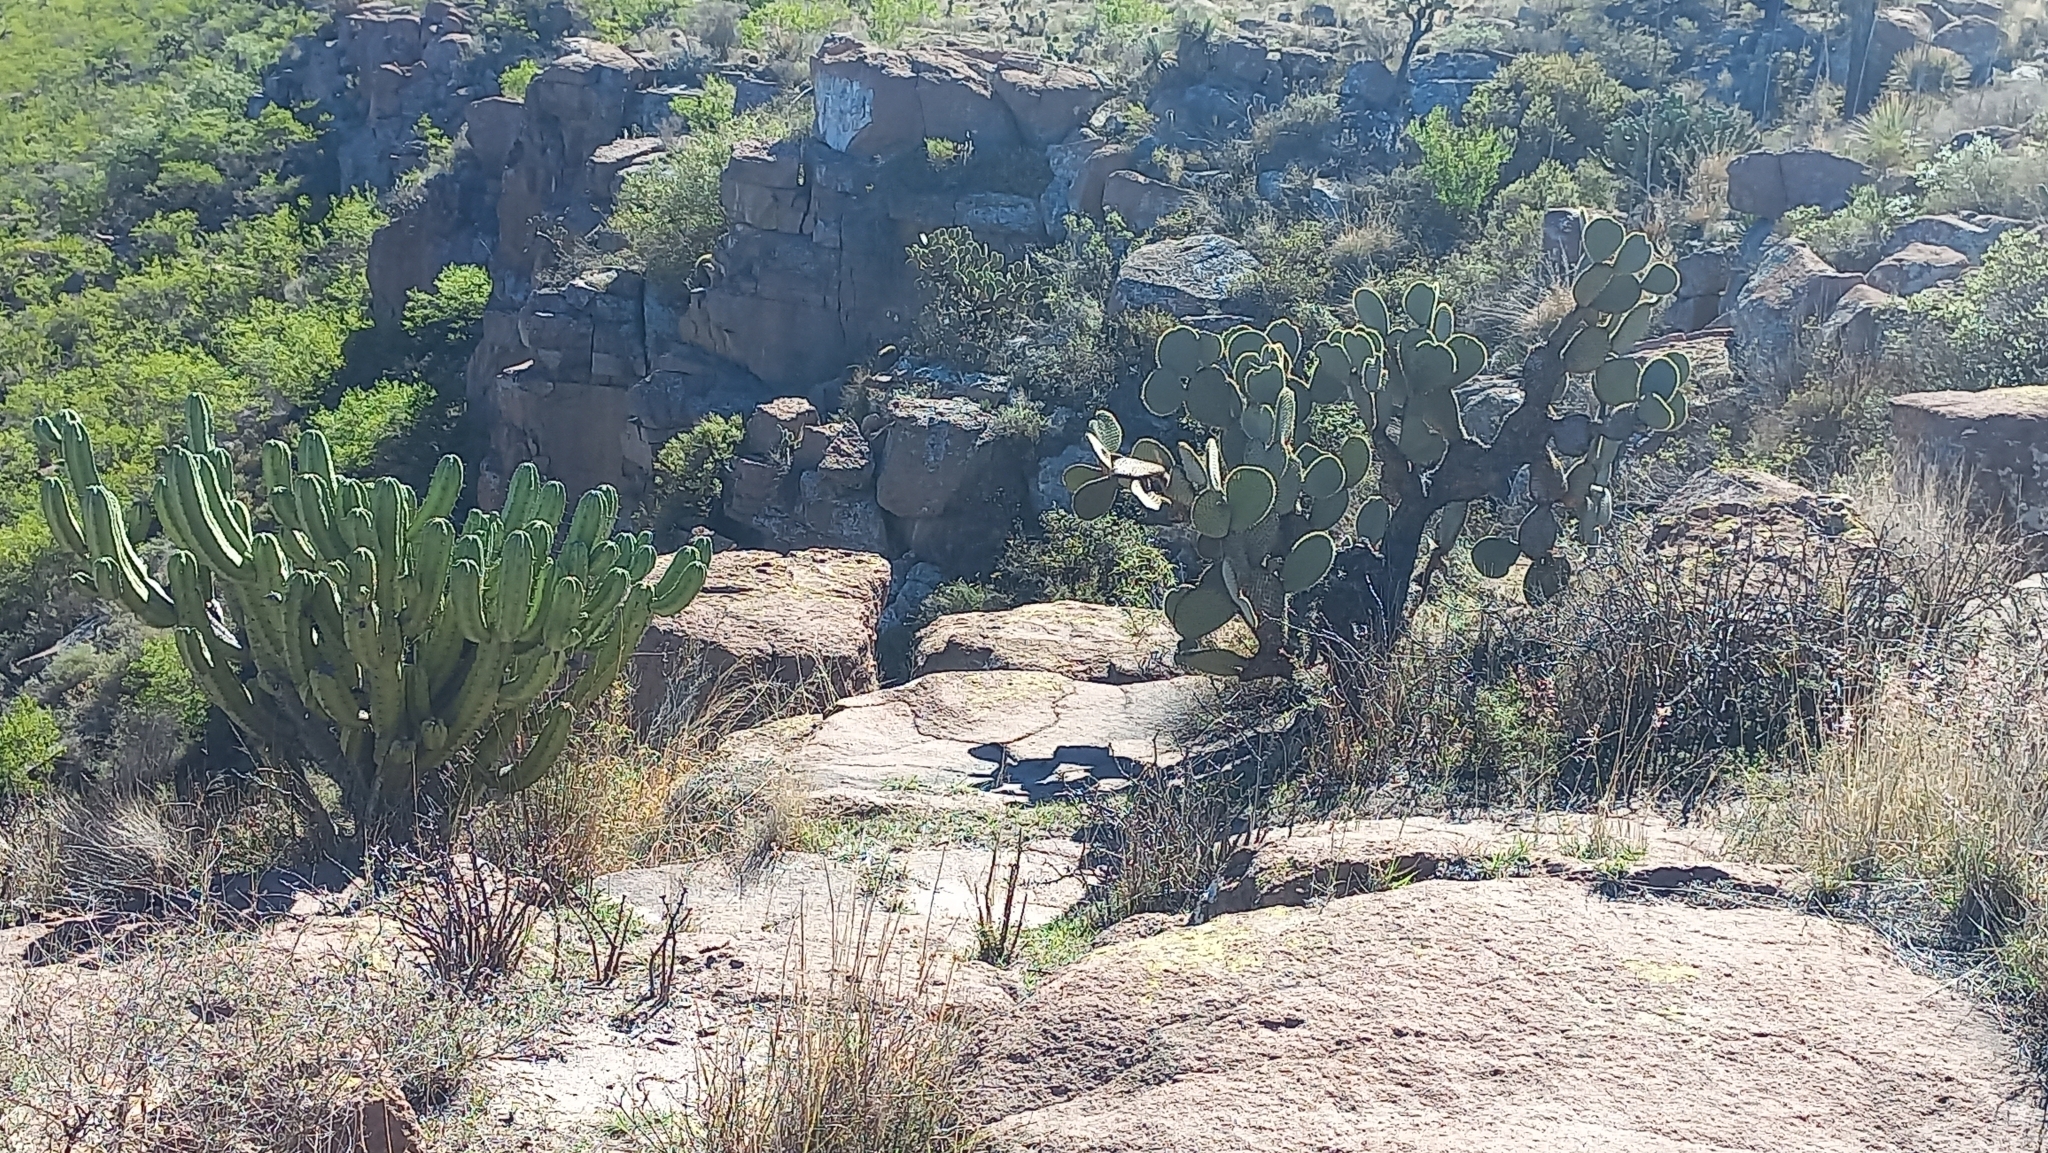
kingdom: Plantae
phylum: Tracheophyta
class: Magnoliopsida
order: Caryophyllales
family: Cactaceae
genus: Myrtillocactus
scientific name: Myrtillocactus geometrizans
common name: Bilberry cactus
